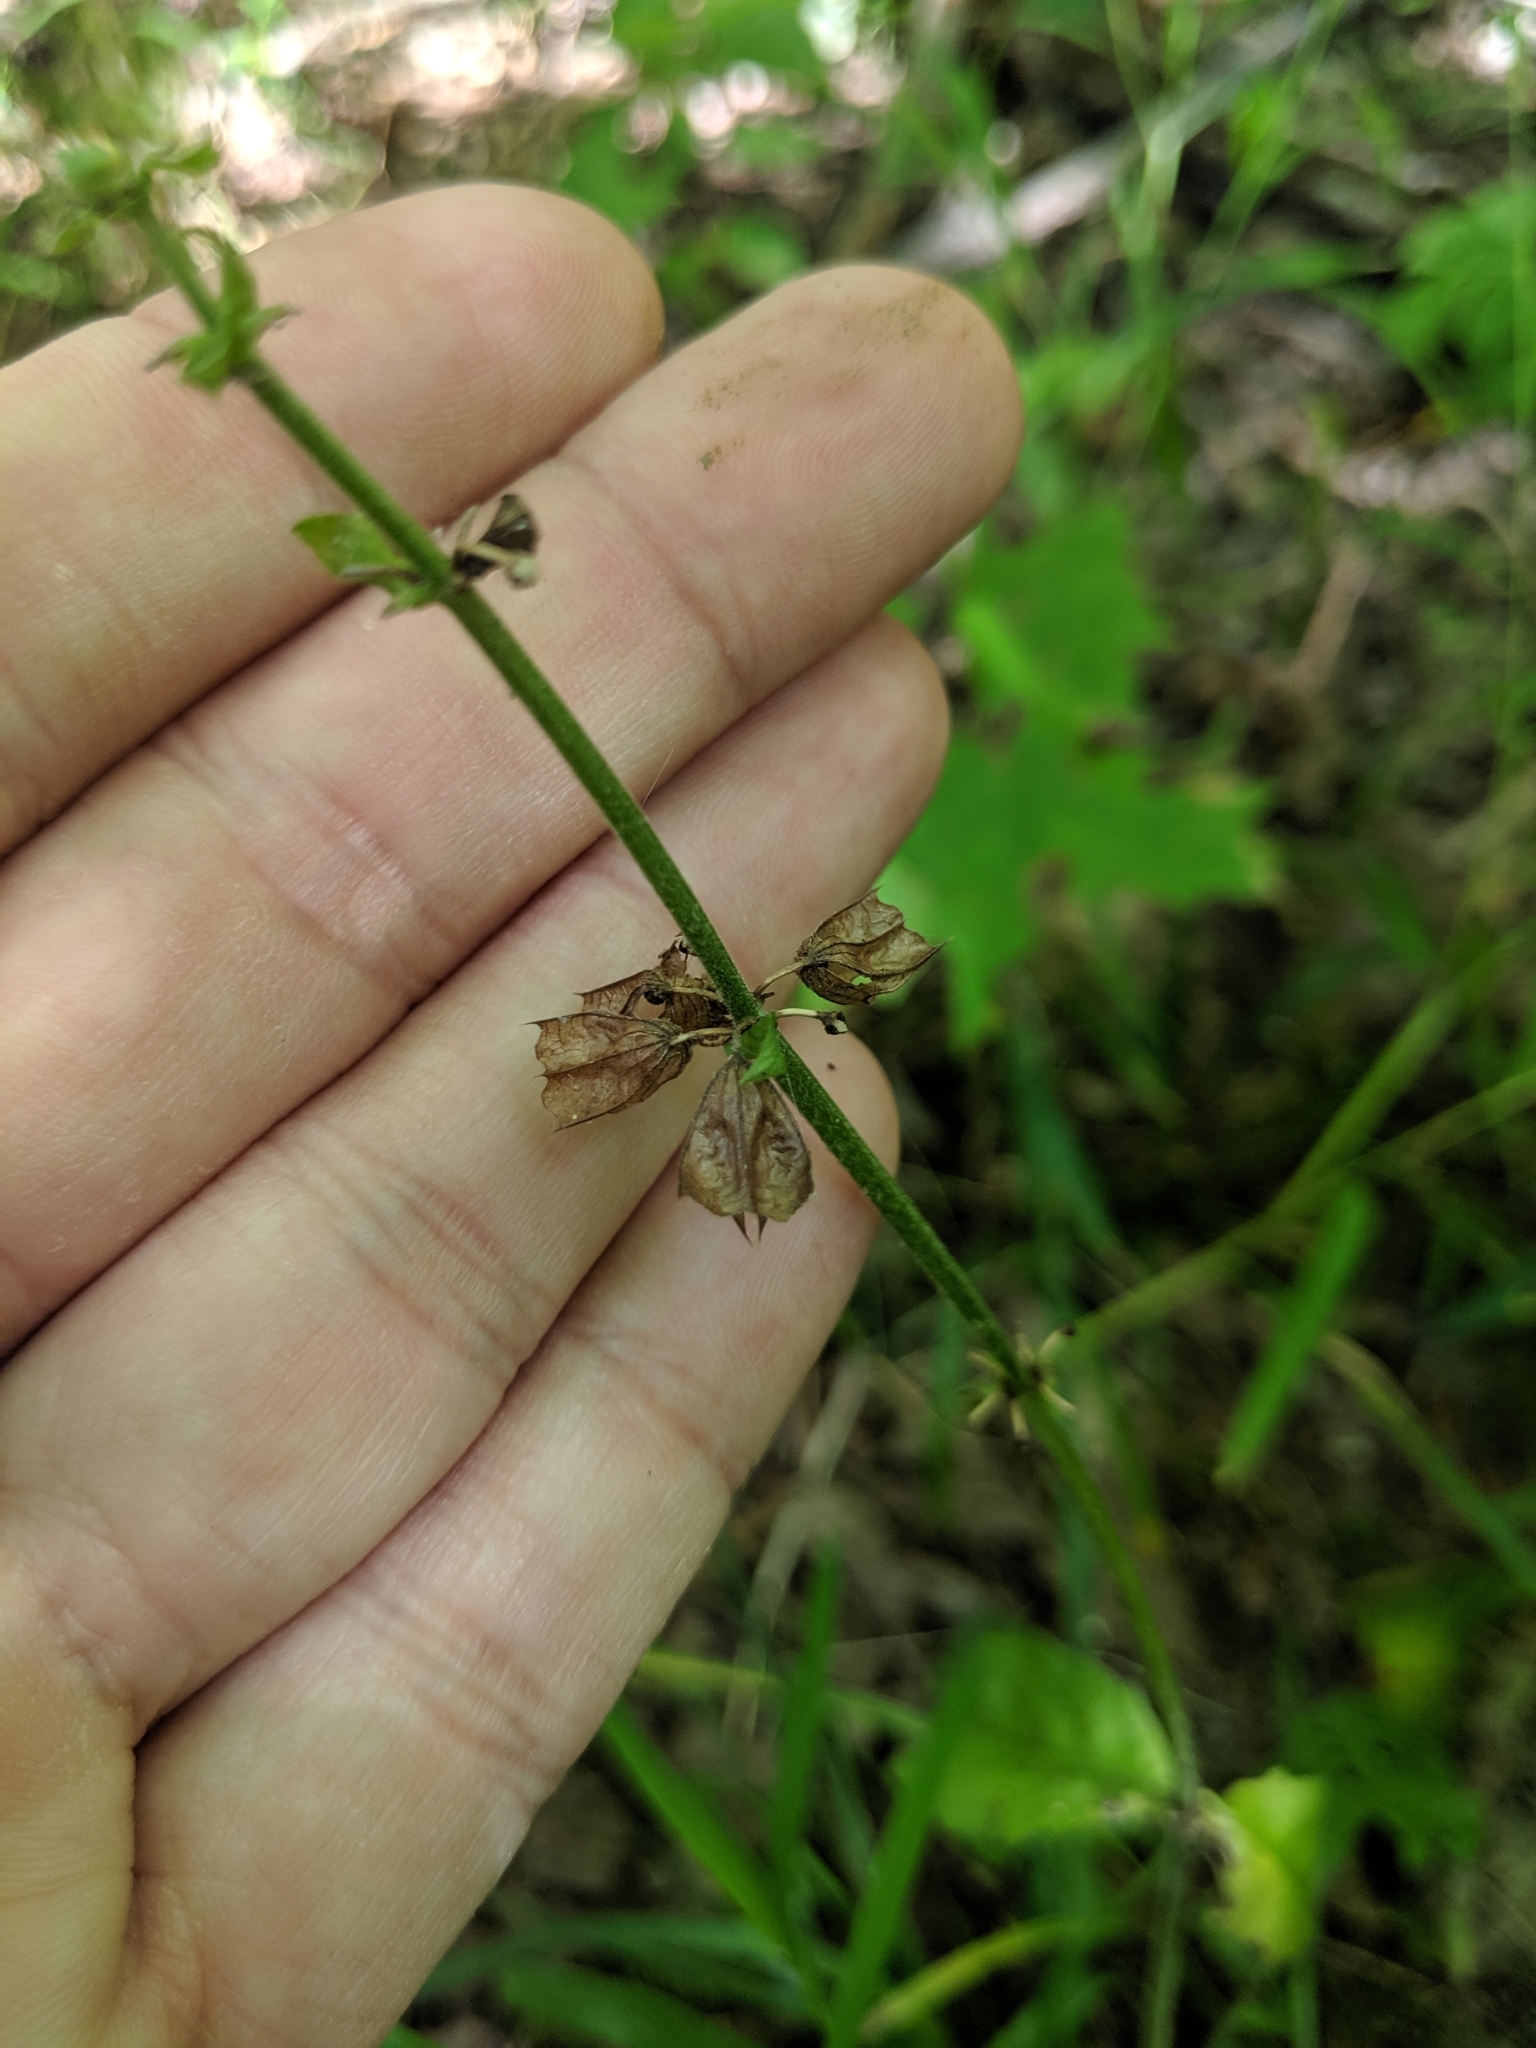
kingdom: Plantae
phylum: Tracheophyta
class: Magnoliopsida
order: Lamiales
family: Lamiaceae
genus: Salvia
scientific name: Salvia lyrata
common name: Cancerweed
